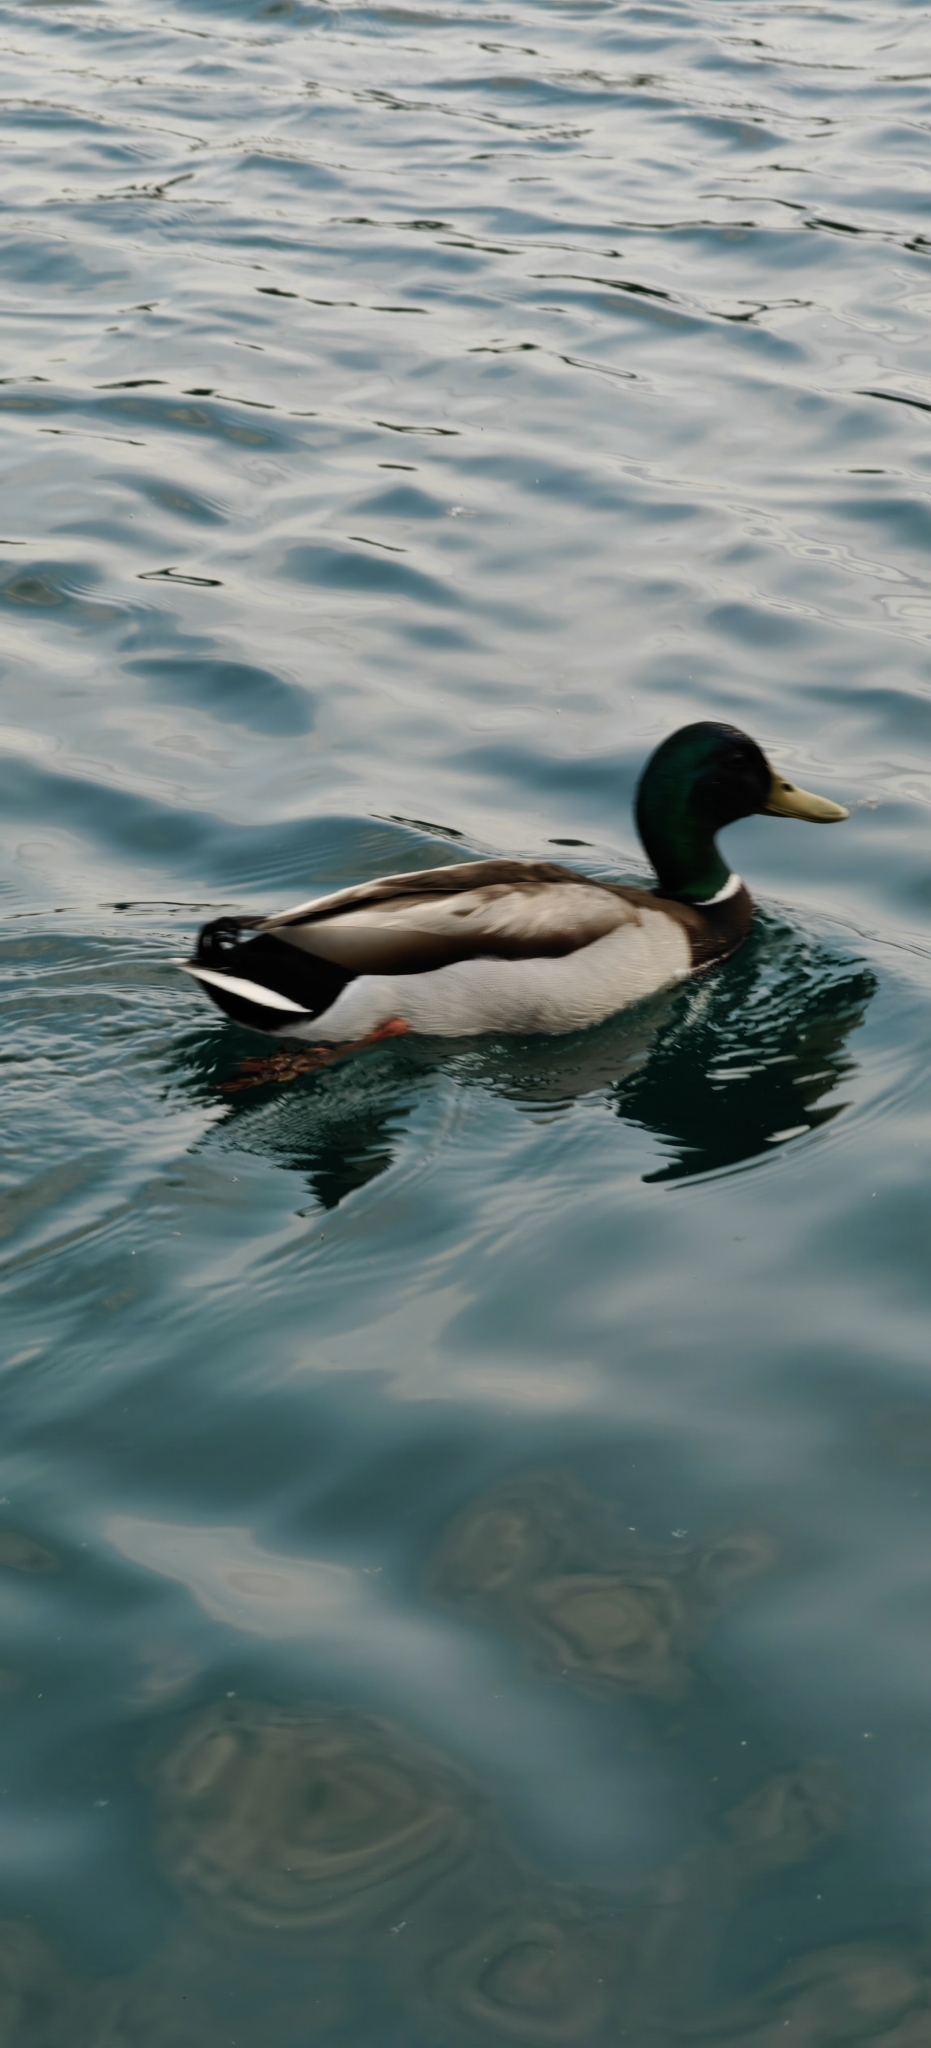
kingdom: Animalia
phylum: Chordata
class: Aves
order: Anseriformes
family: Anatidae
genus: Anas
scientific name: Anas platyrhynchos
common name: Mallard
